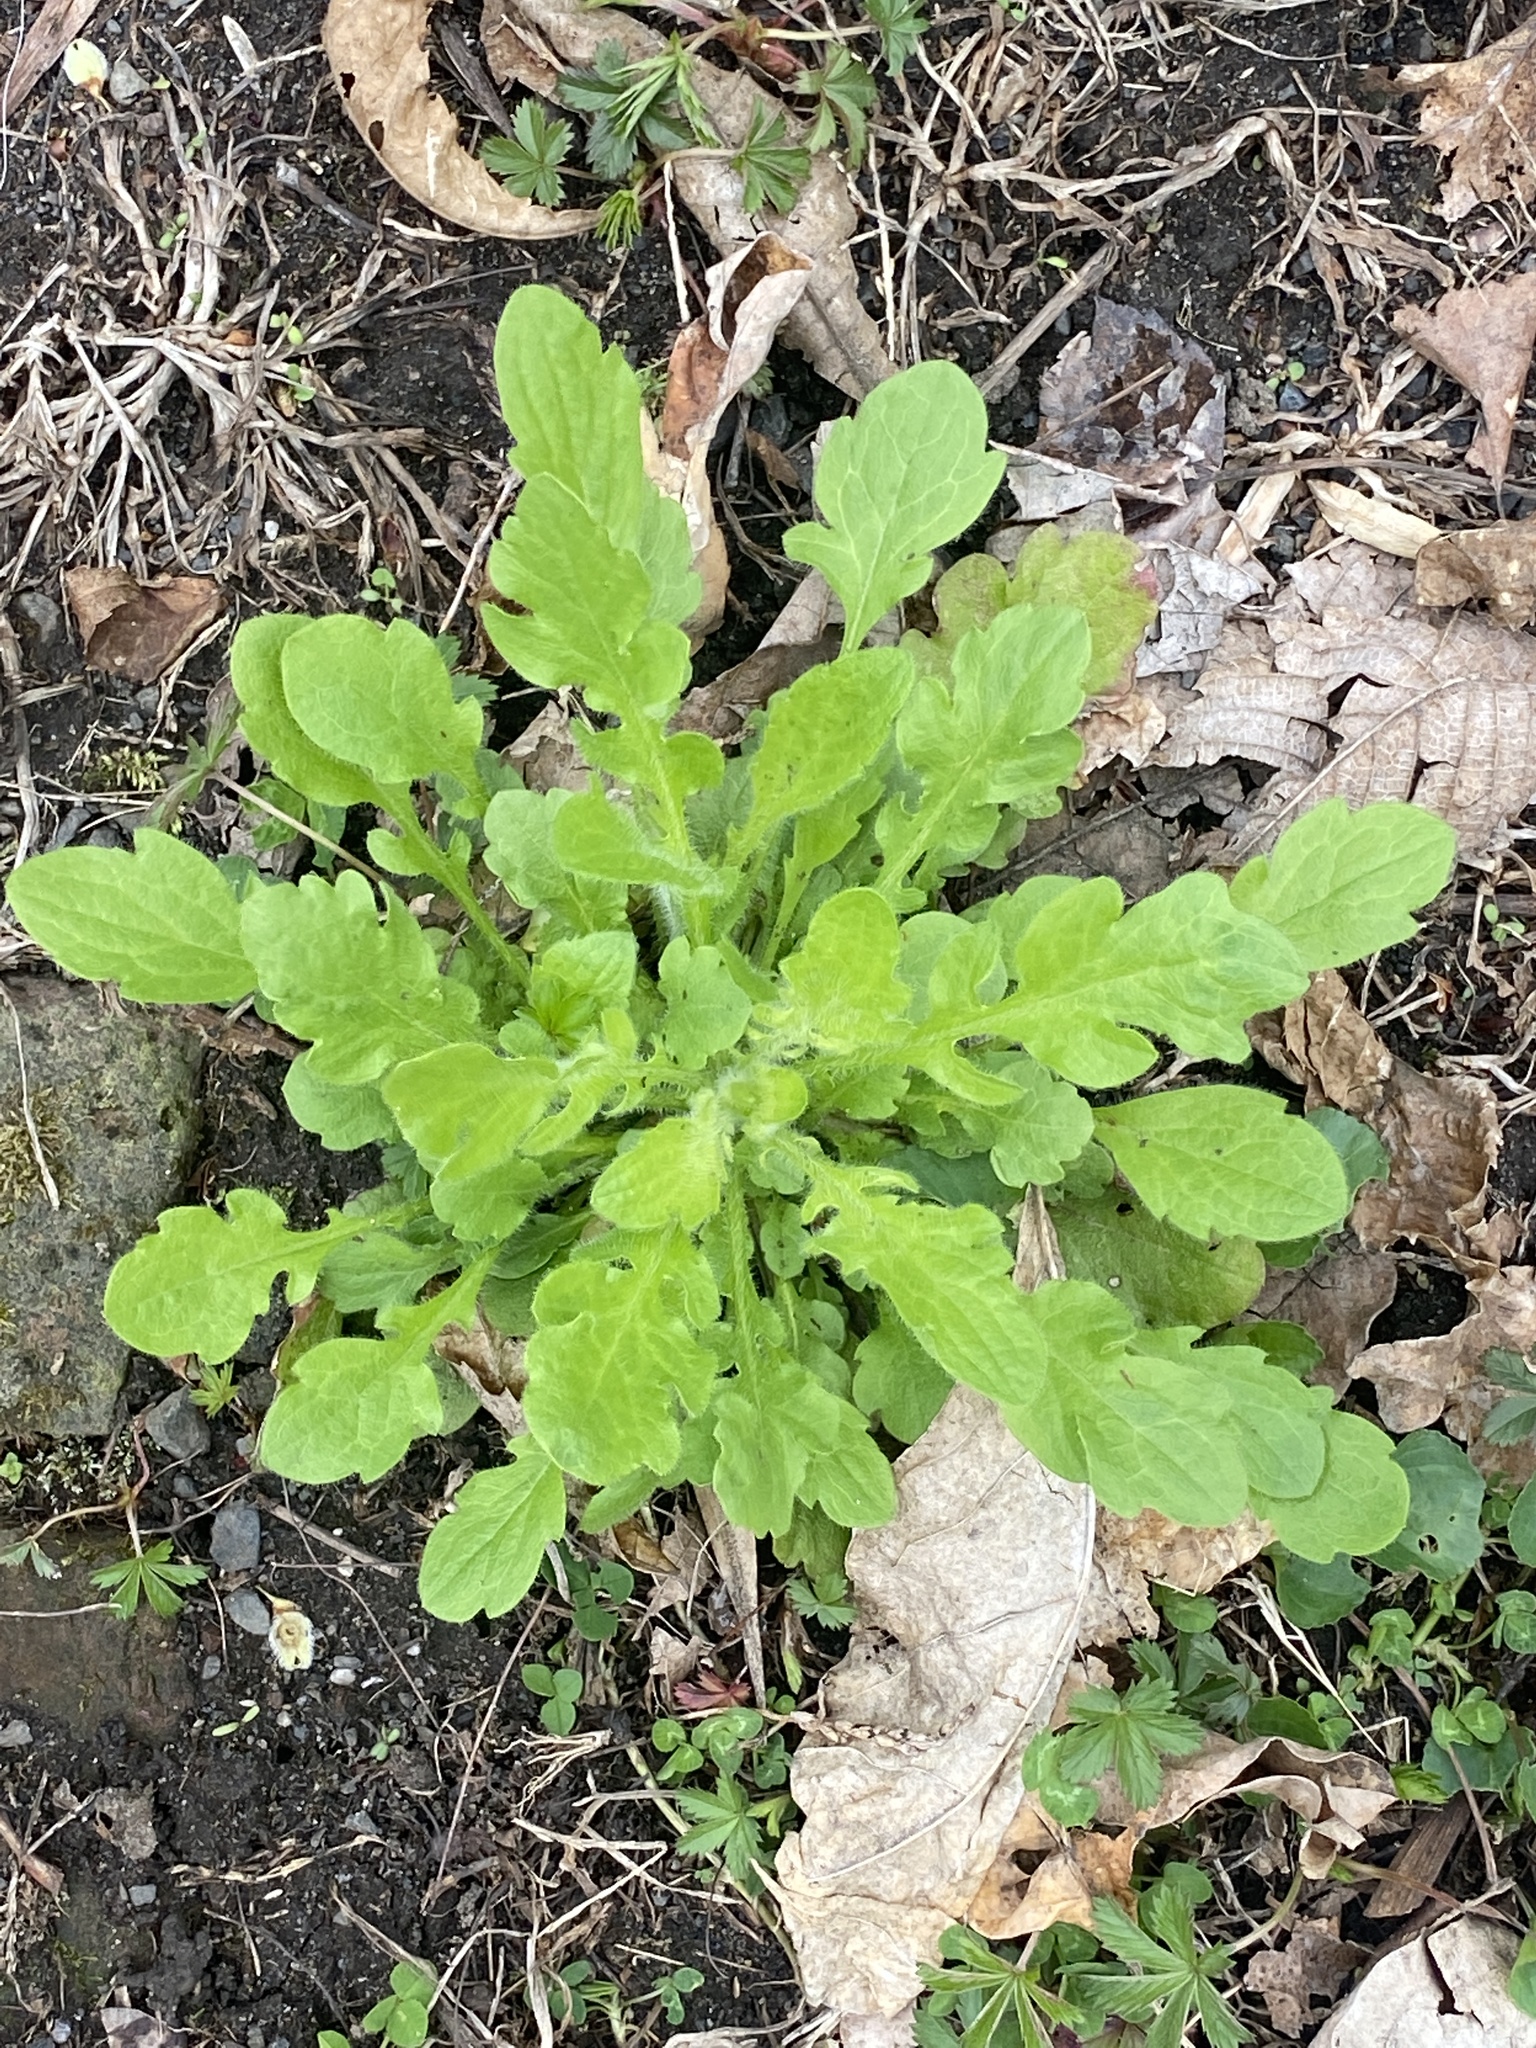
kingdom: Plantae
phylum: Tracheophyta
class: Magnoliopsida
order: Asterales
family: Asteraceae
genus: Erigeron
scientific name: Erigeron canadensis
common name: Canadian fleabane
